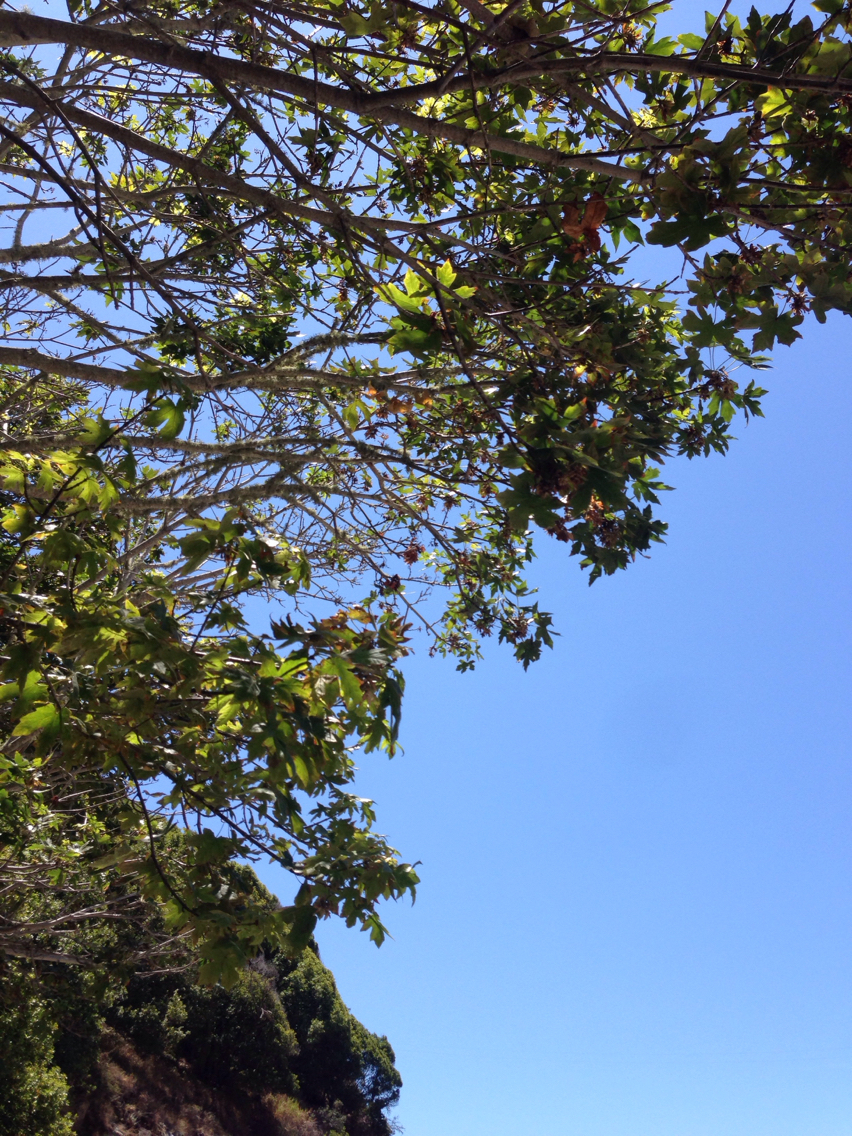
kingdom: Plantae
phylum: Tracheophyta
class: Magnoliopsida
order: Sapindales
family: Sapindaceae
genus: Acer
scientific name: Acer macrophyllum
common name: Oregon maple
